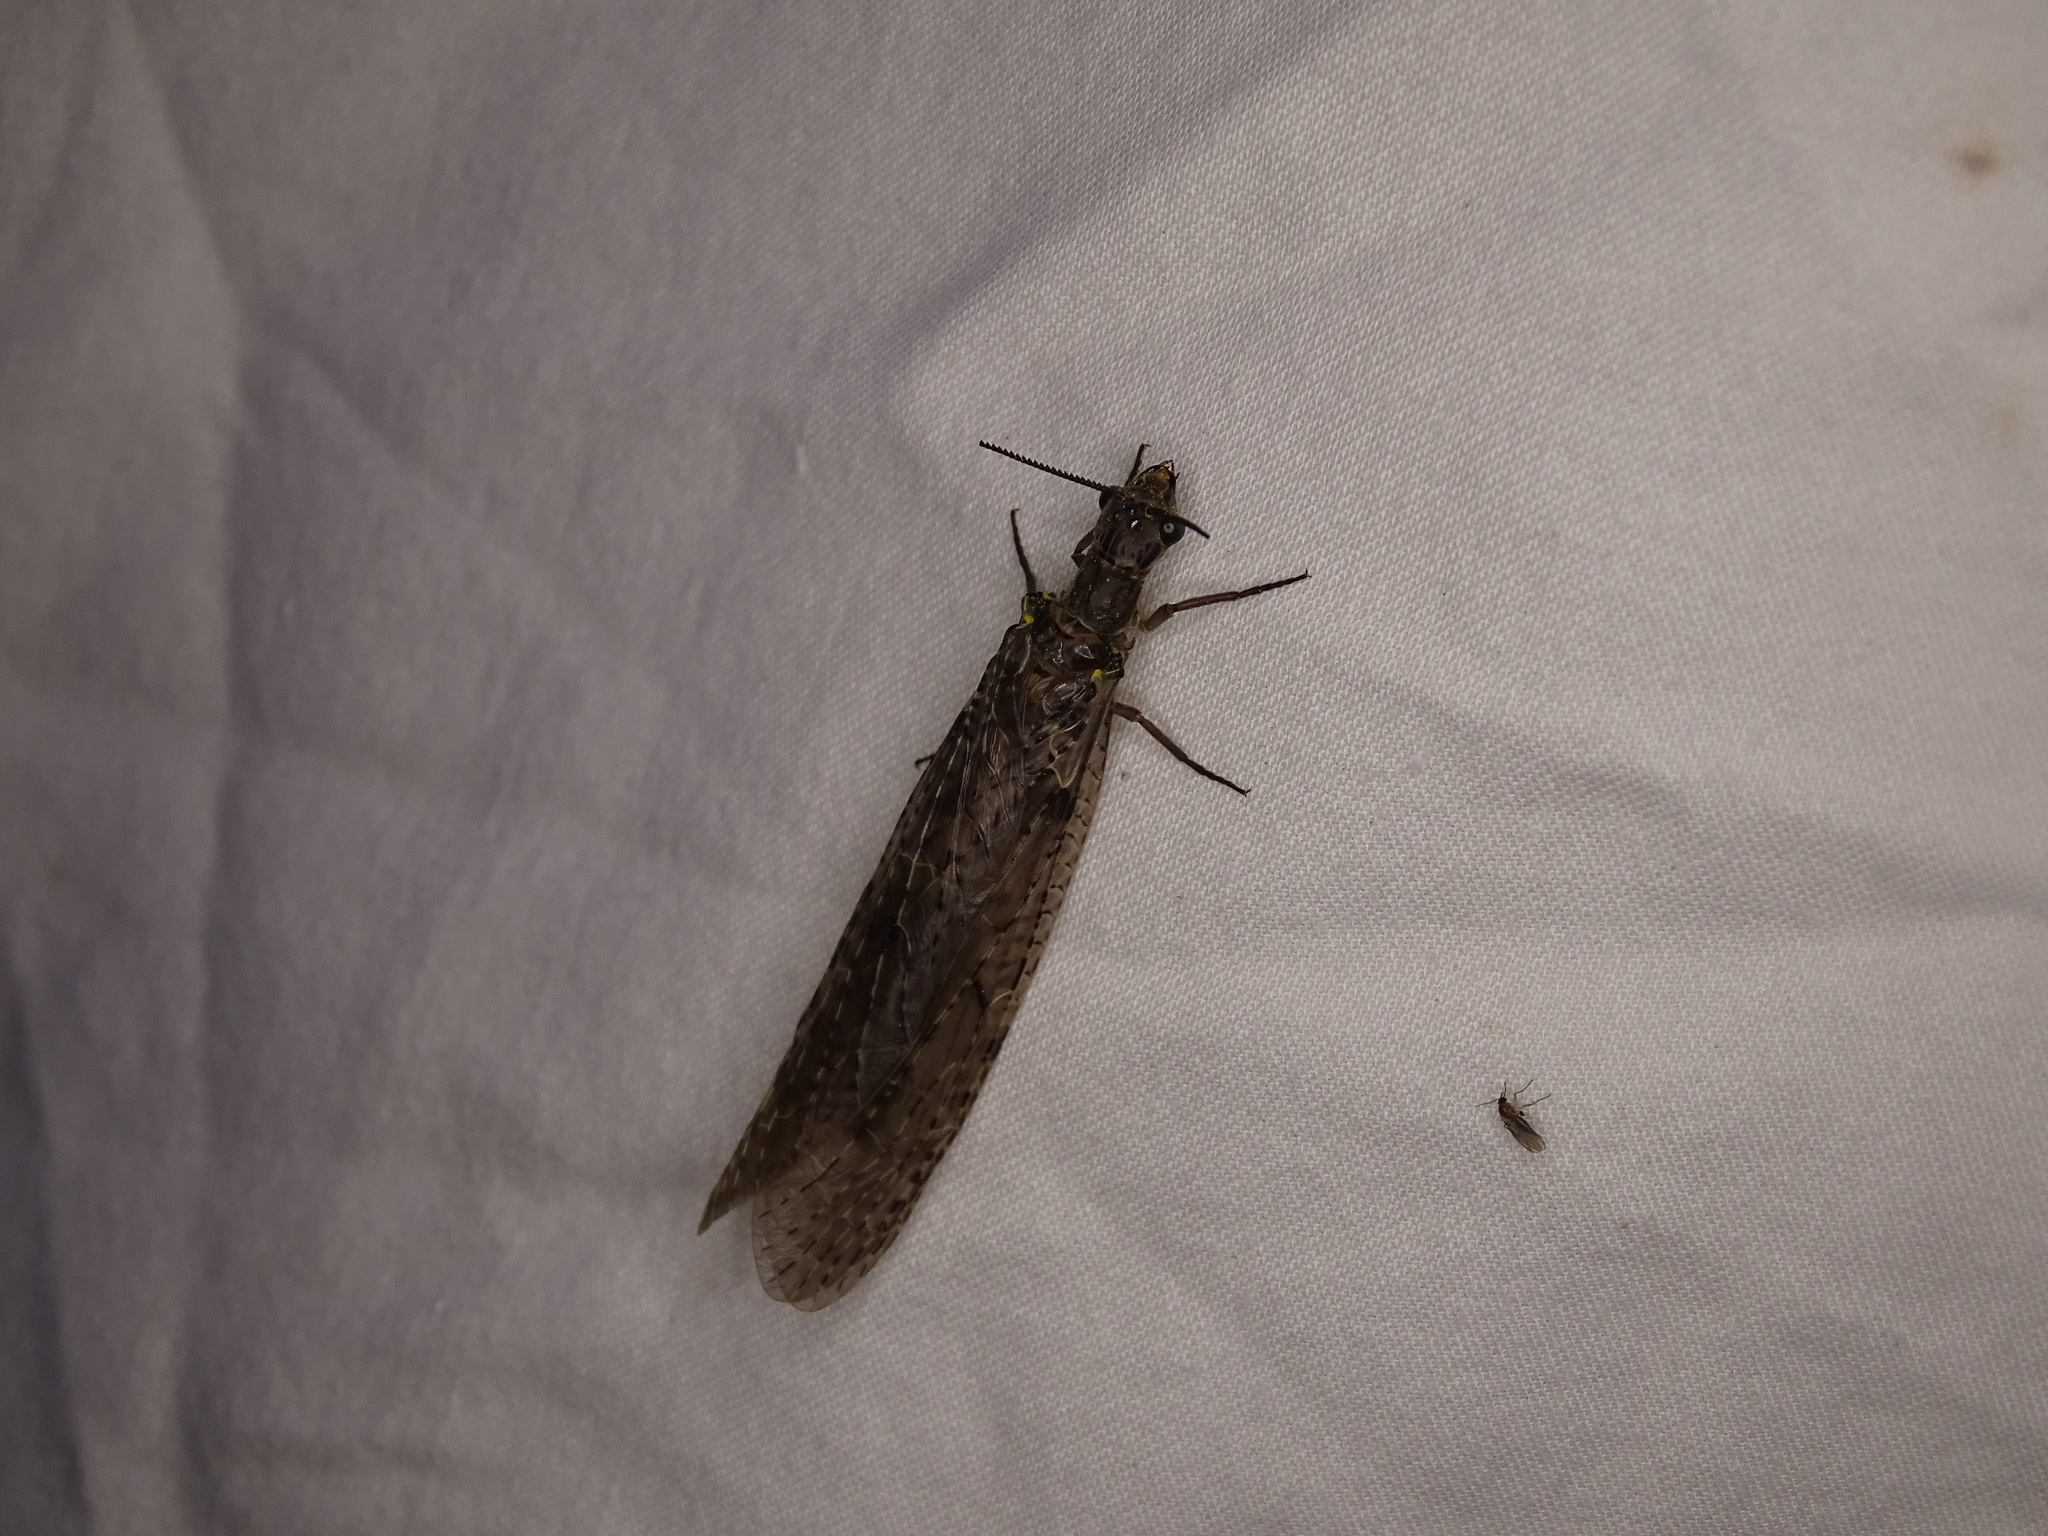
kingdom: Animalia
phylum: Arthropoda
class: Insecta
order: Megaloptera
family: Corydalidae
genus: Chauliodes
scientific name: Chauliodes rastricornis
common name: Spring fishfly
